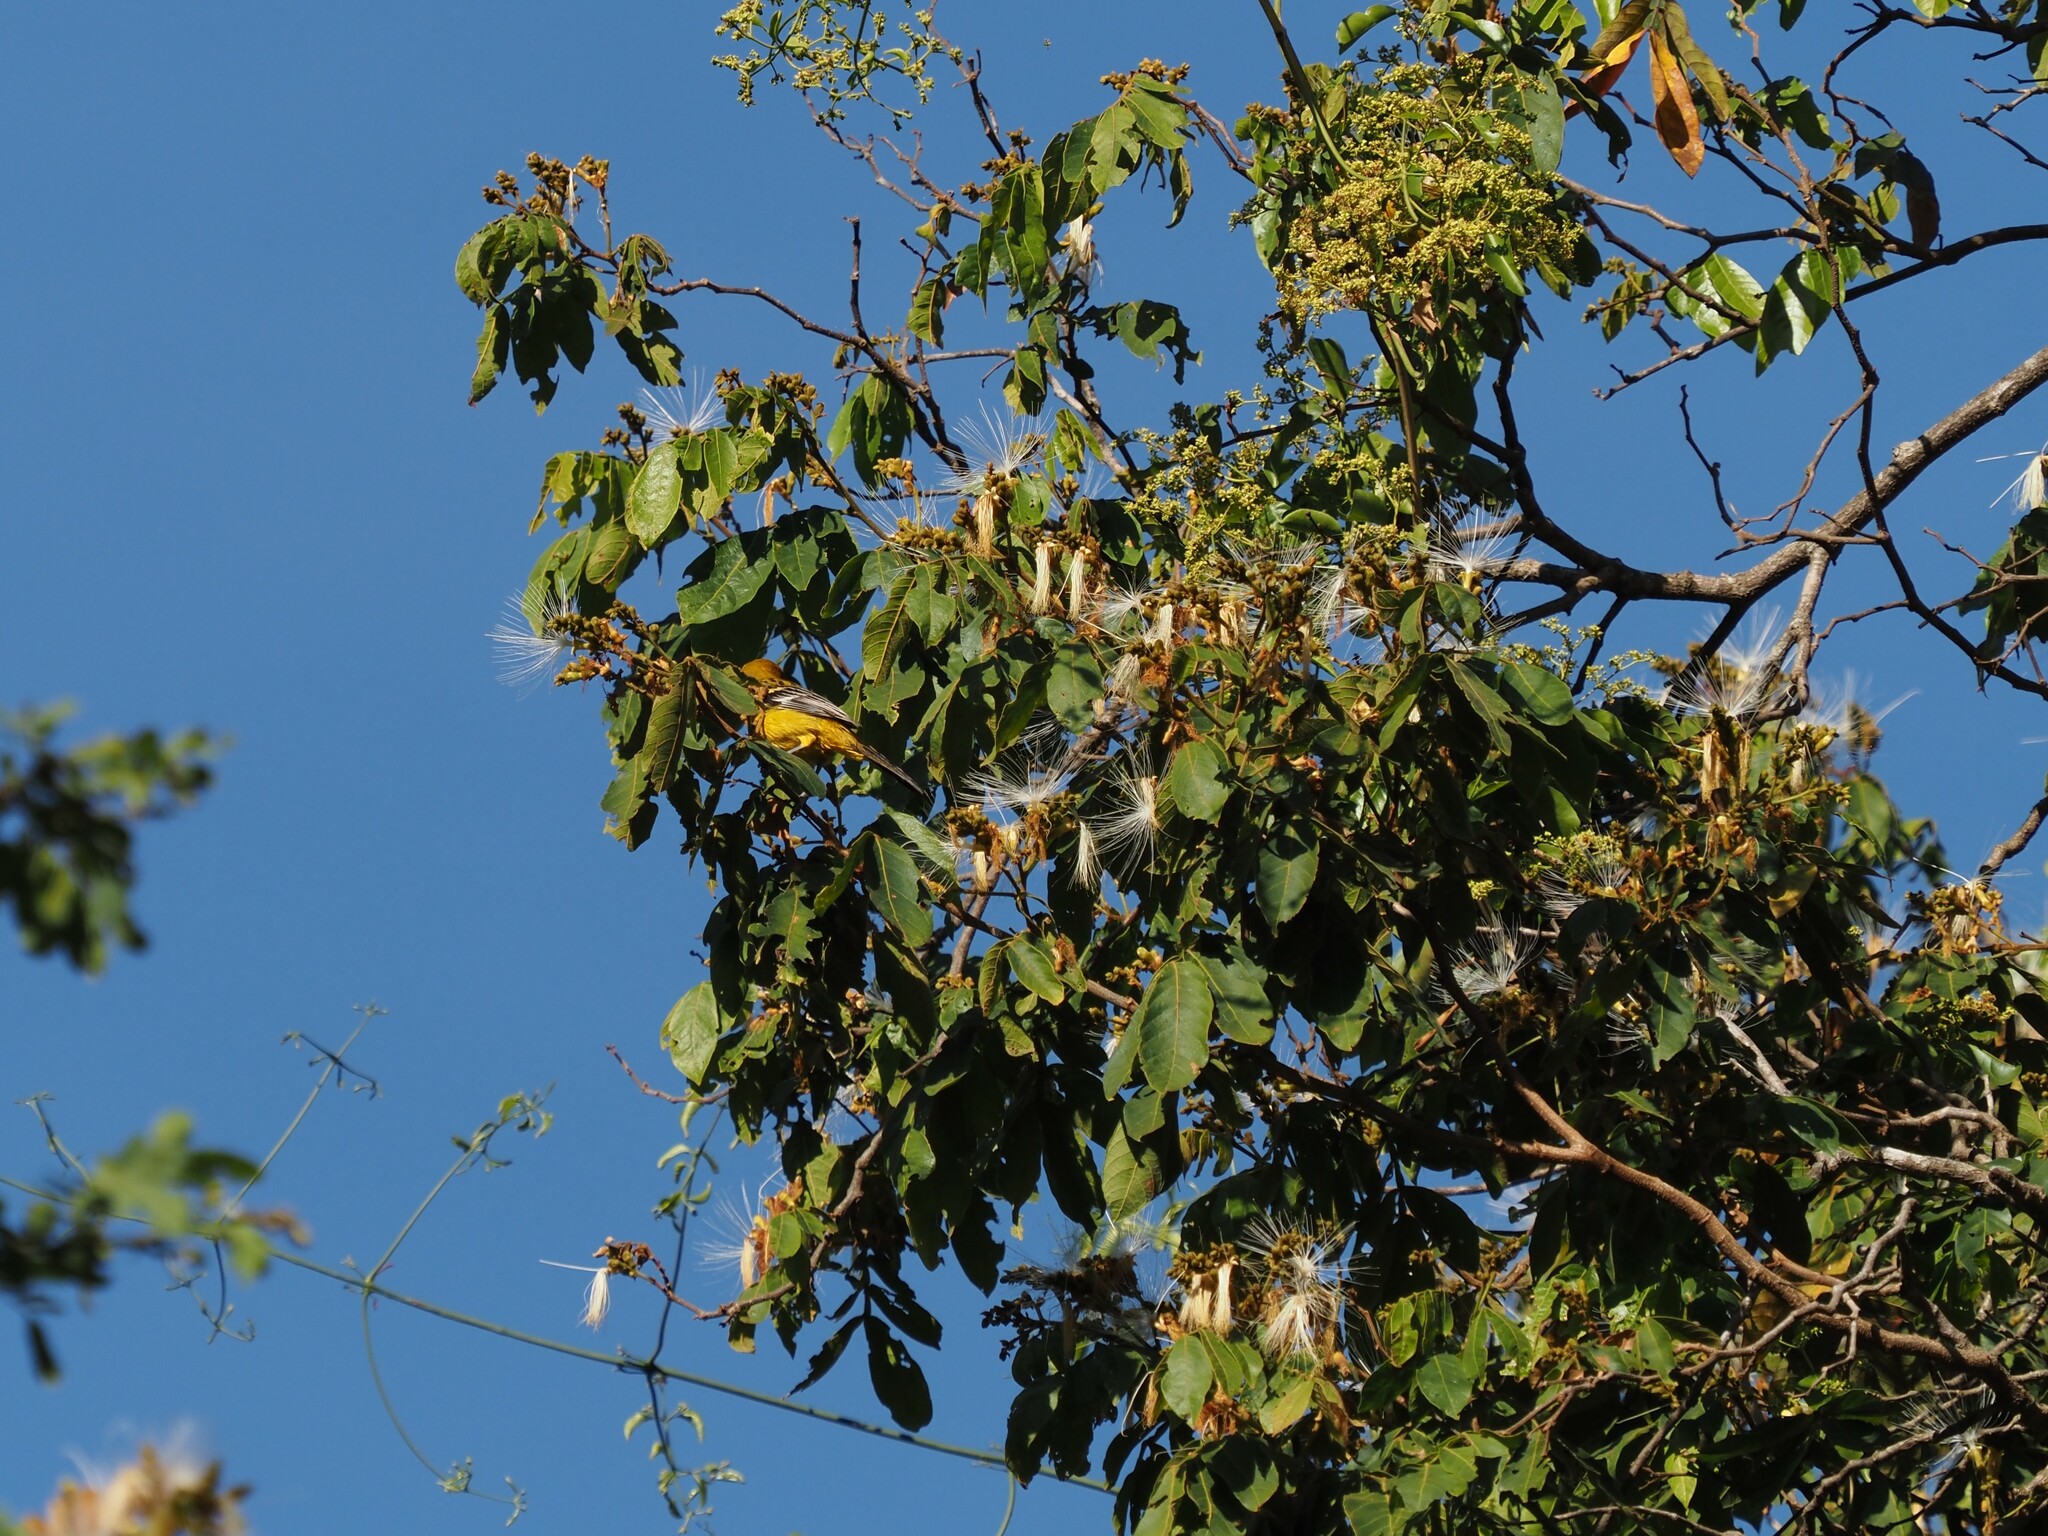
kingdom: Animalia
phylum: Chordata
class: Aves
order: Passeriformes
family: Icteridae
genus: Icterus
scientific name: Icterus pustulatus
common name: Streak-backed oriole
